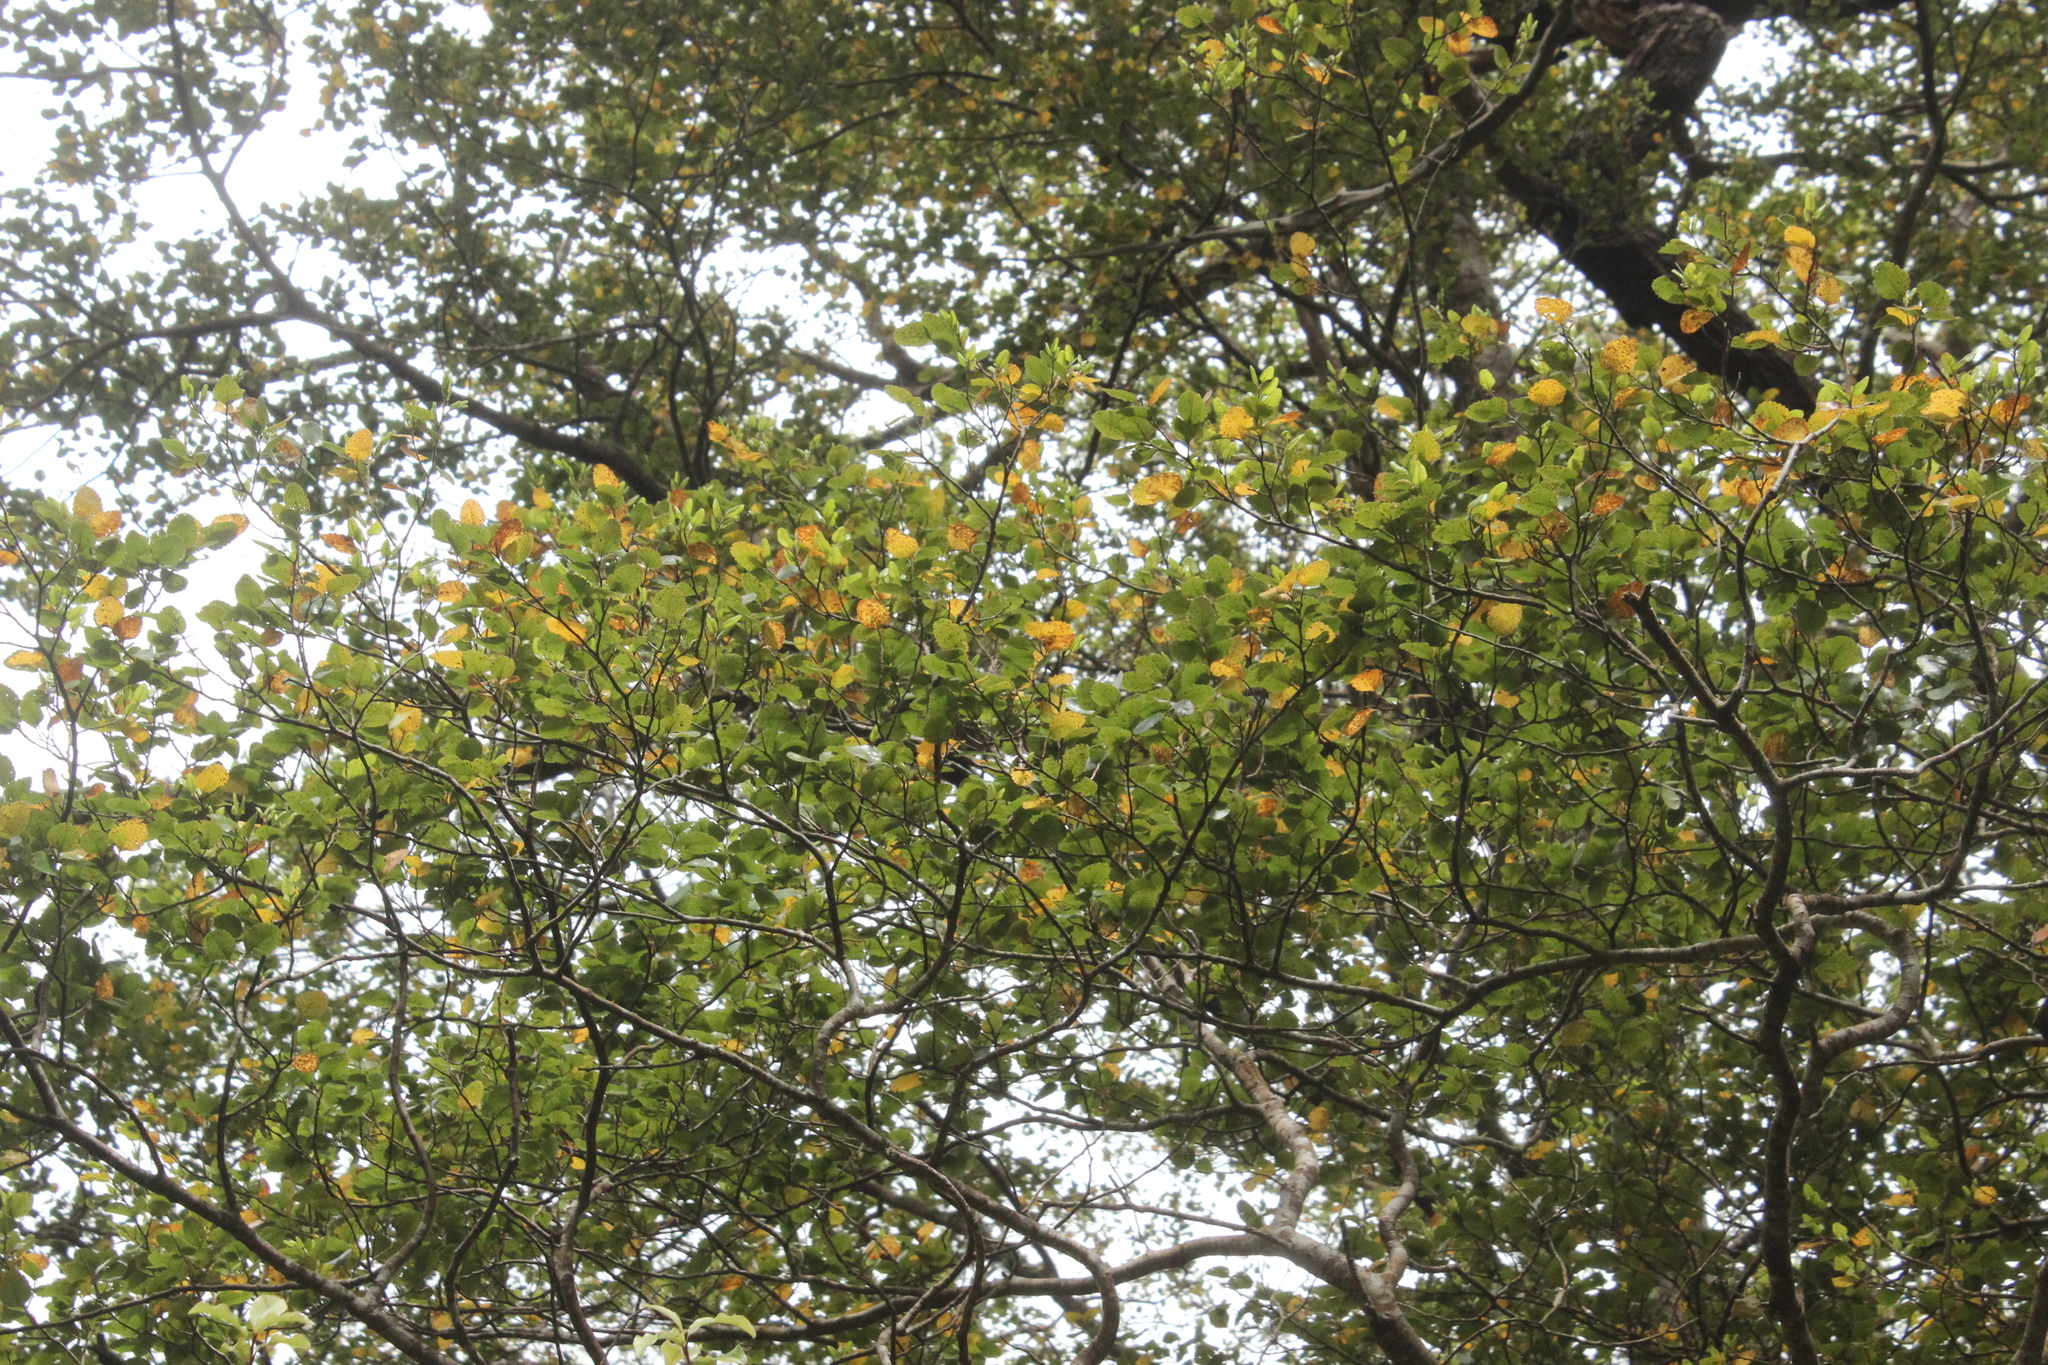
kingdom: Plantae
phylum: Tracheophyta
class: Magnoliopsida
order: Fagales
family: Nothofagaceae
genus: Nothofagus
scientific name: Nothofagus truncata
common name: Hard beech
